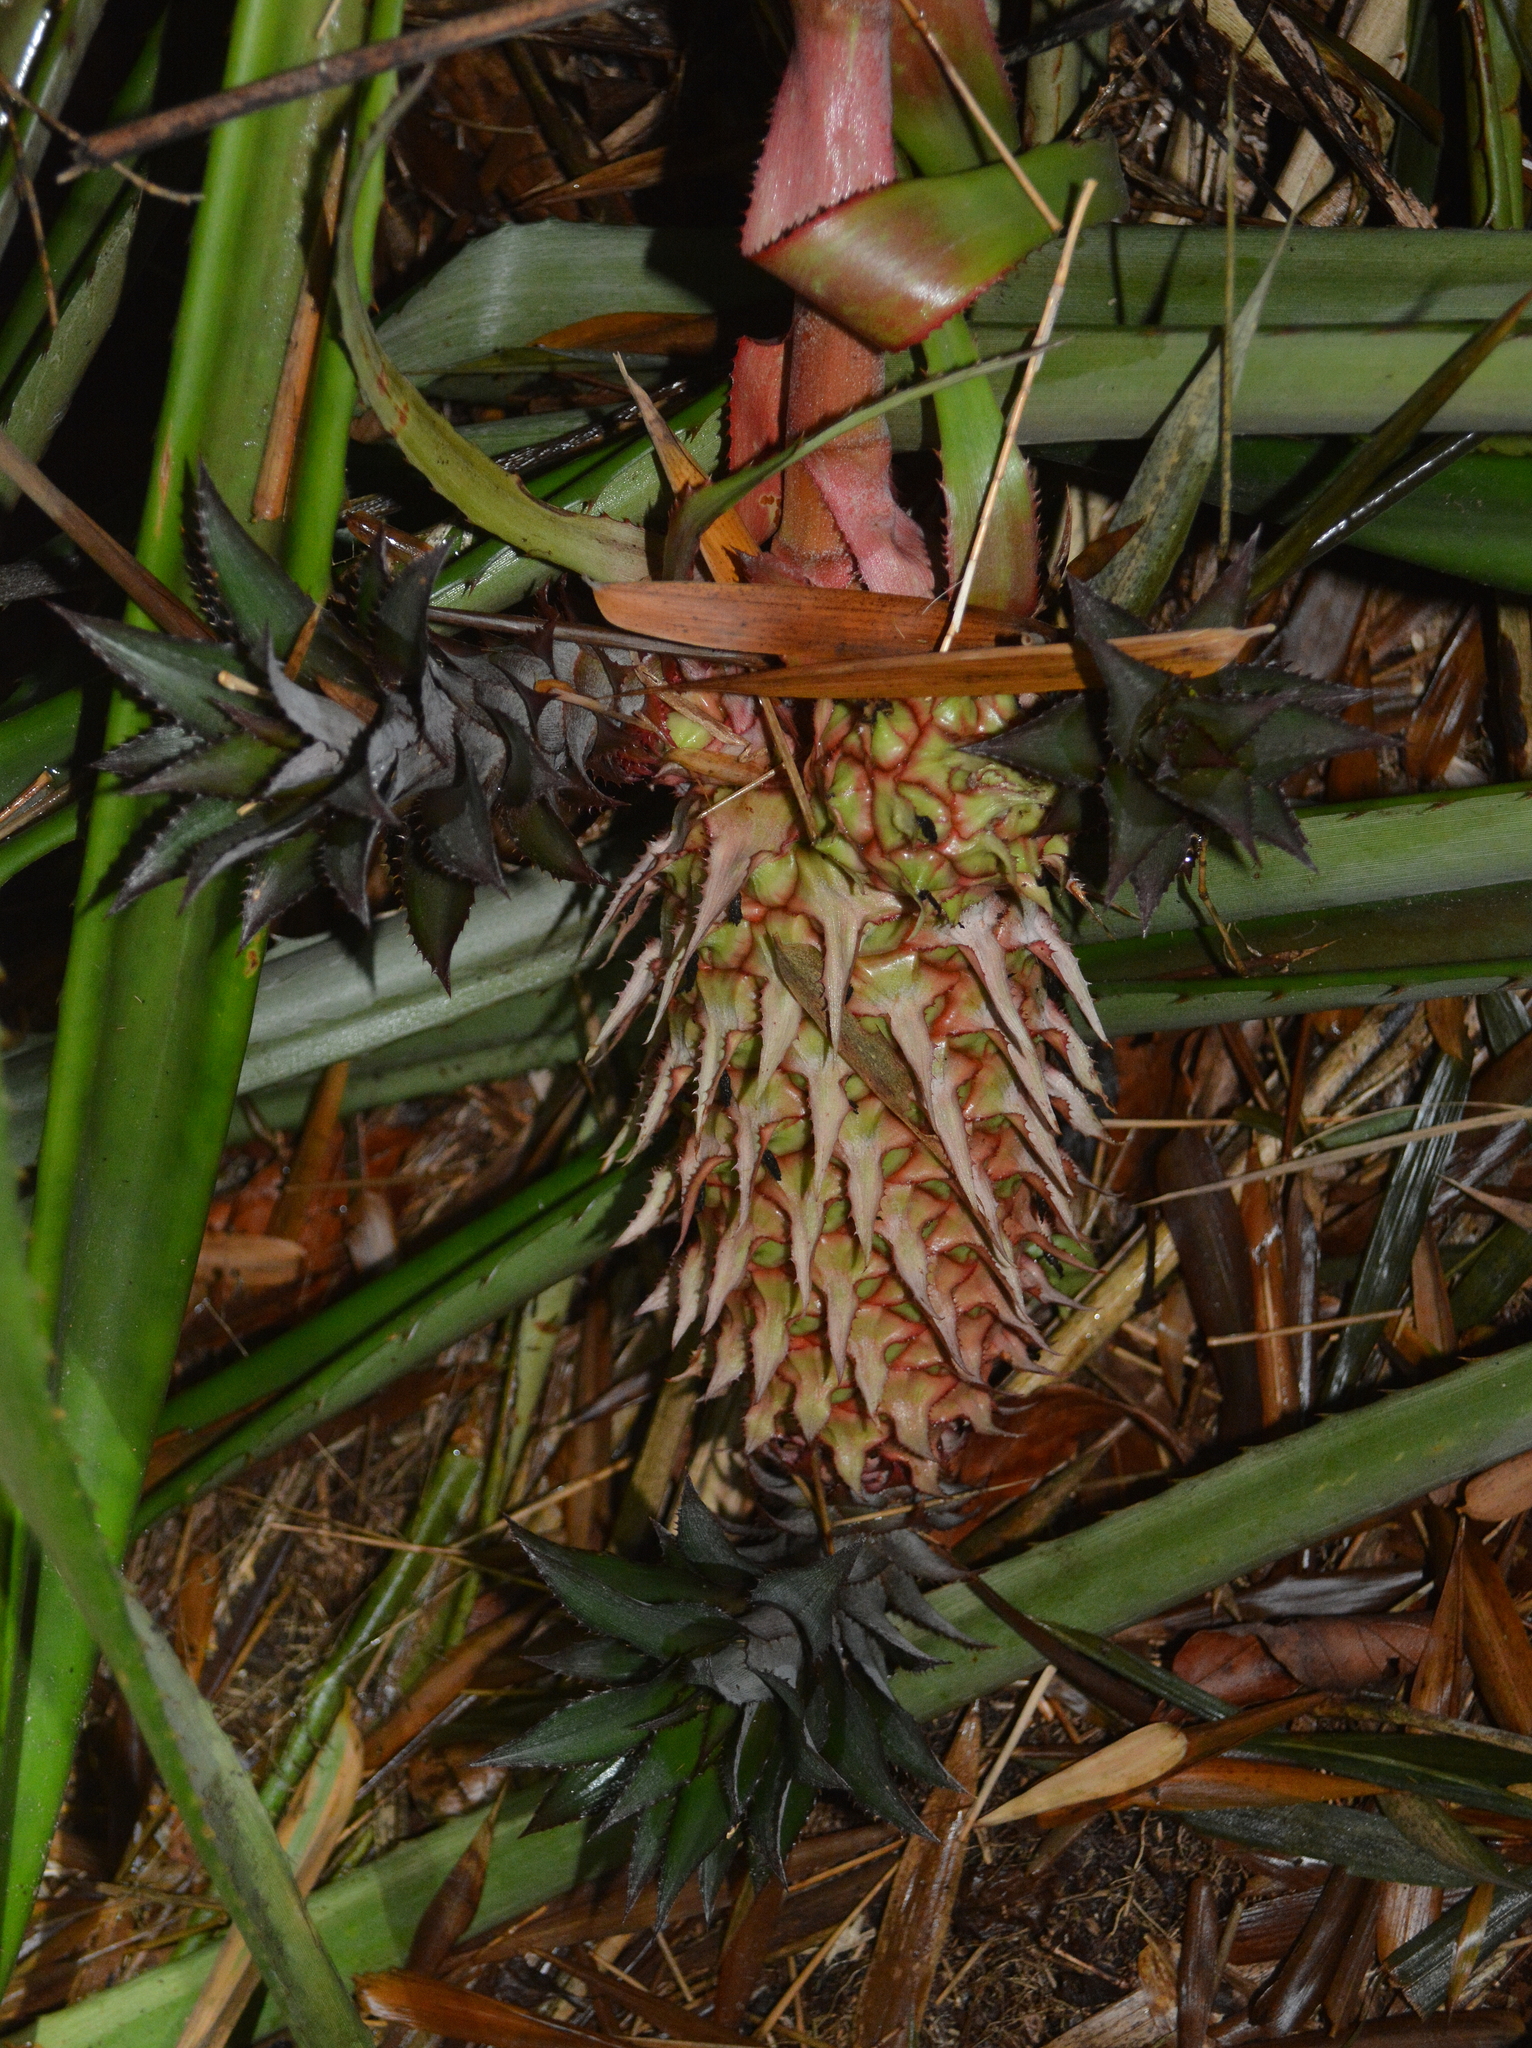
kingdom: Plantae
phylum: Tracheophyta
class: Liliopsida
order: Poales
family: Bromeliaceae
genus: Ananas
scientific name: Ananas comosus
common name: Pineapple
